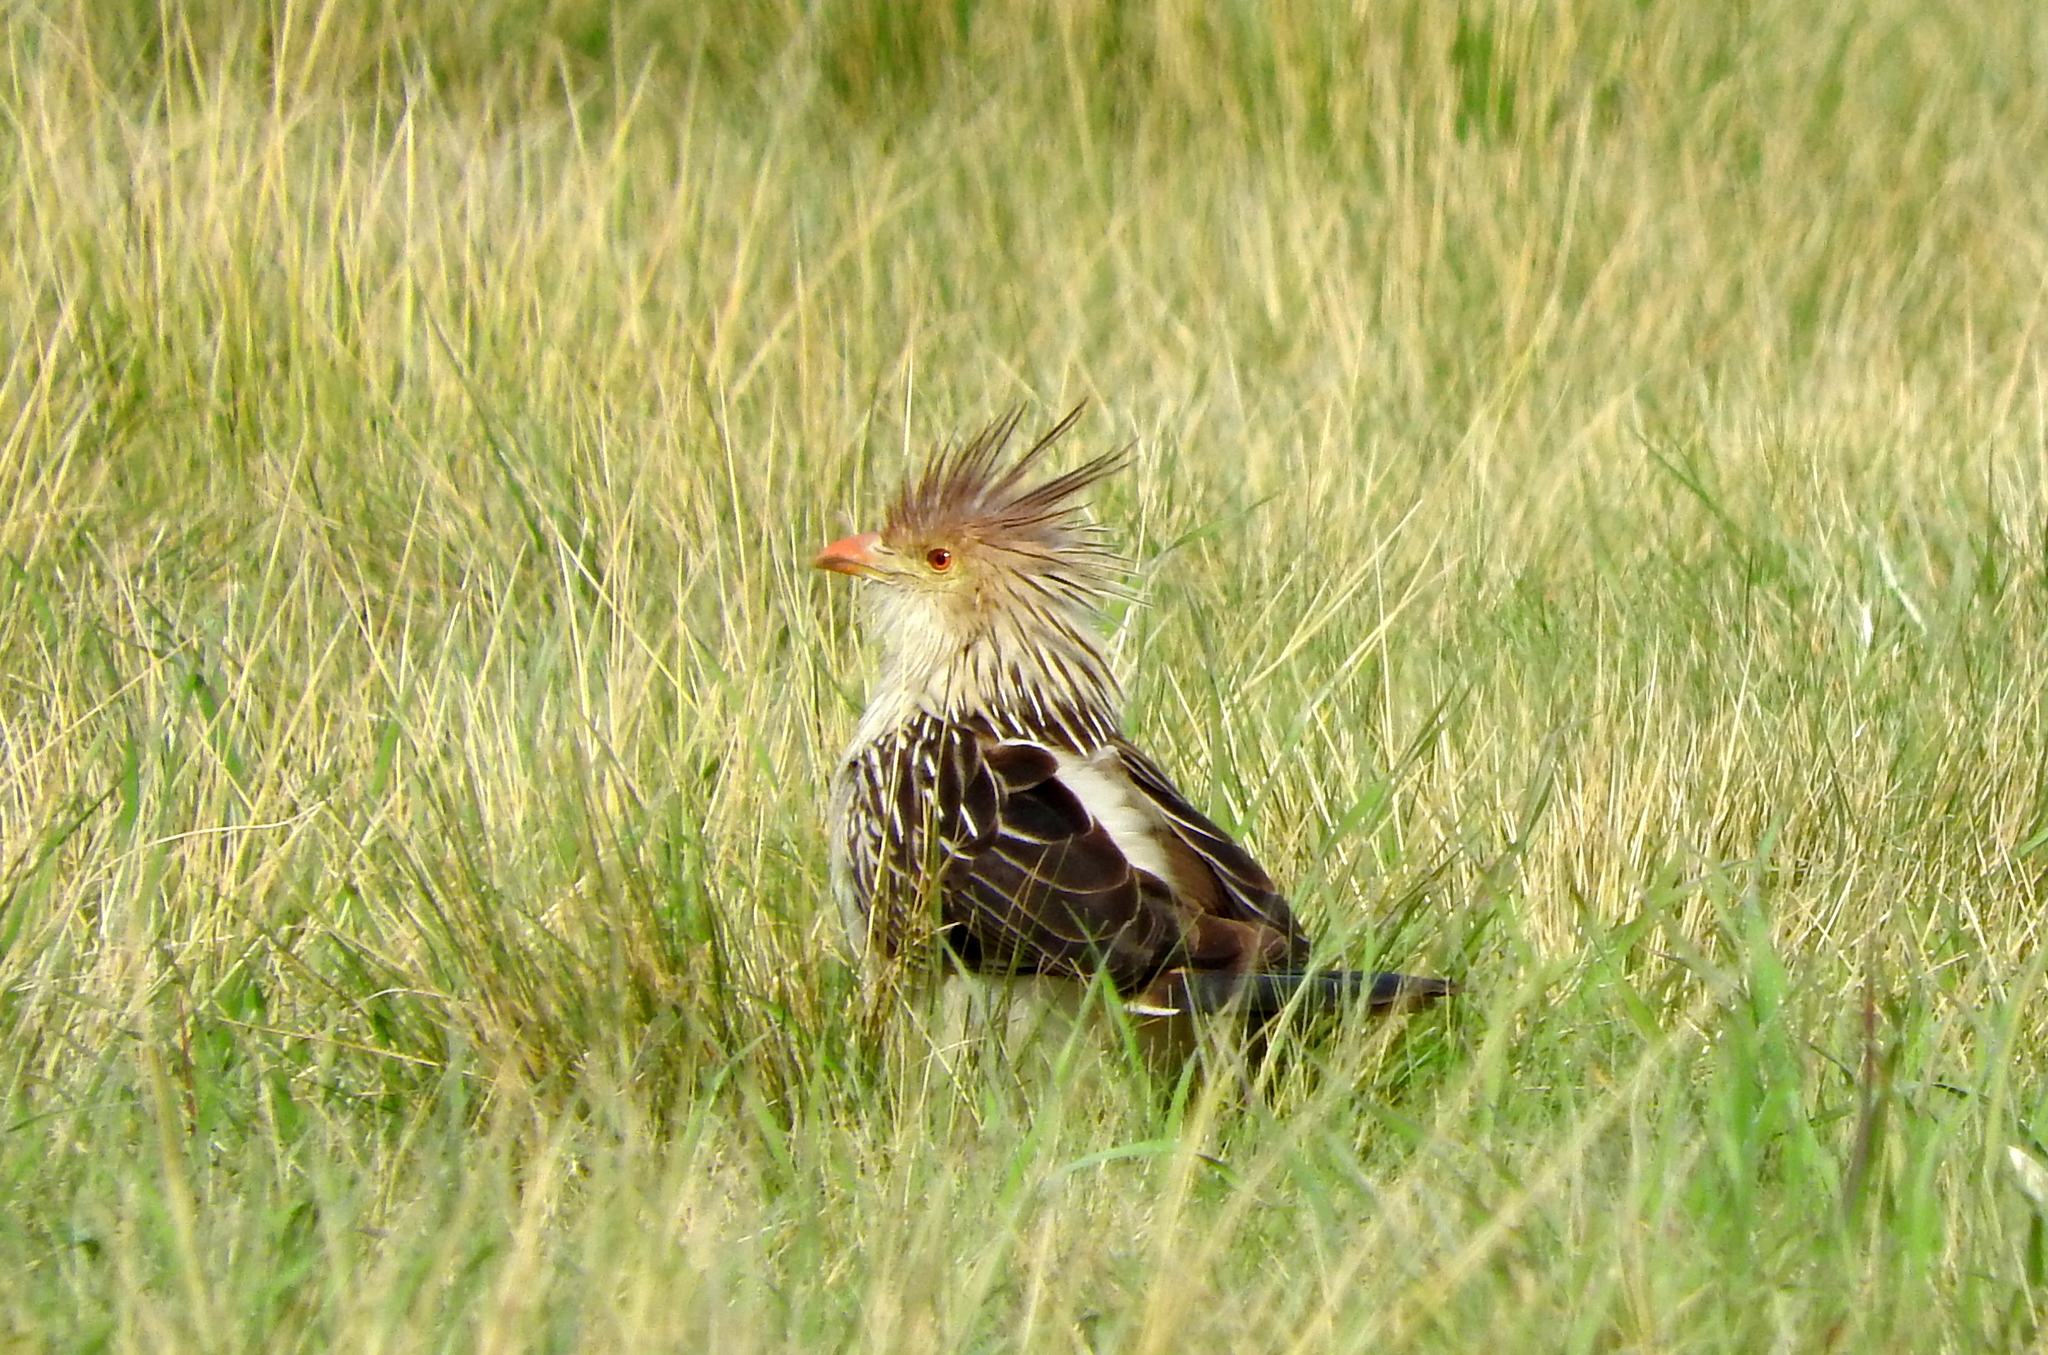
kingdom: Animalia
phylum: Chordata
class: Aves
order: Cuculiformes
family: Cuculidae
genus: Guira
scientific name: Guira guira
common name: Guira cuckoo
